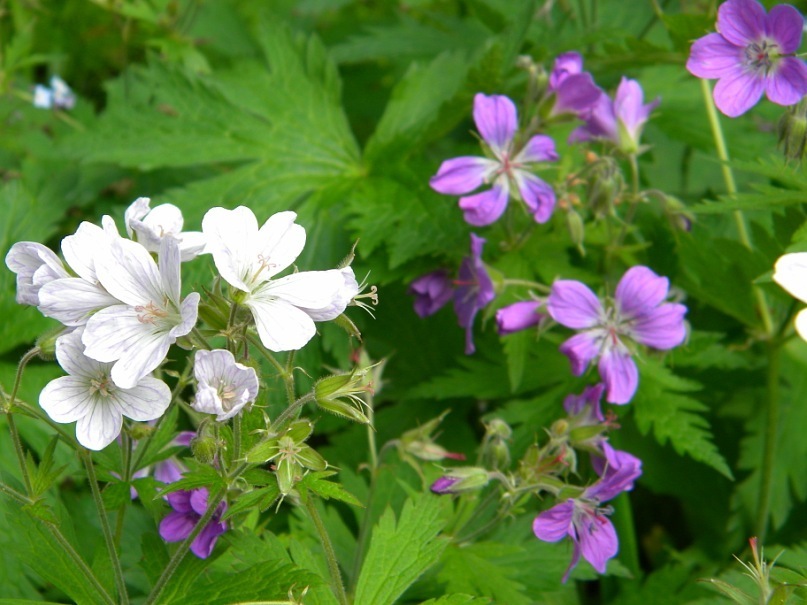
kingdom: Plantae
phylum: Tracheophyta
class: Magnoliopsida
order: Geraniales
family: Geraniaceae
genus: Geranium
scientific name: Geranium sylvaticum
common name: Wood crane's-bill
